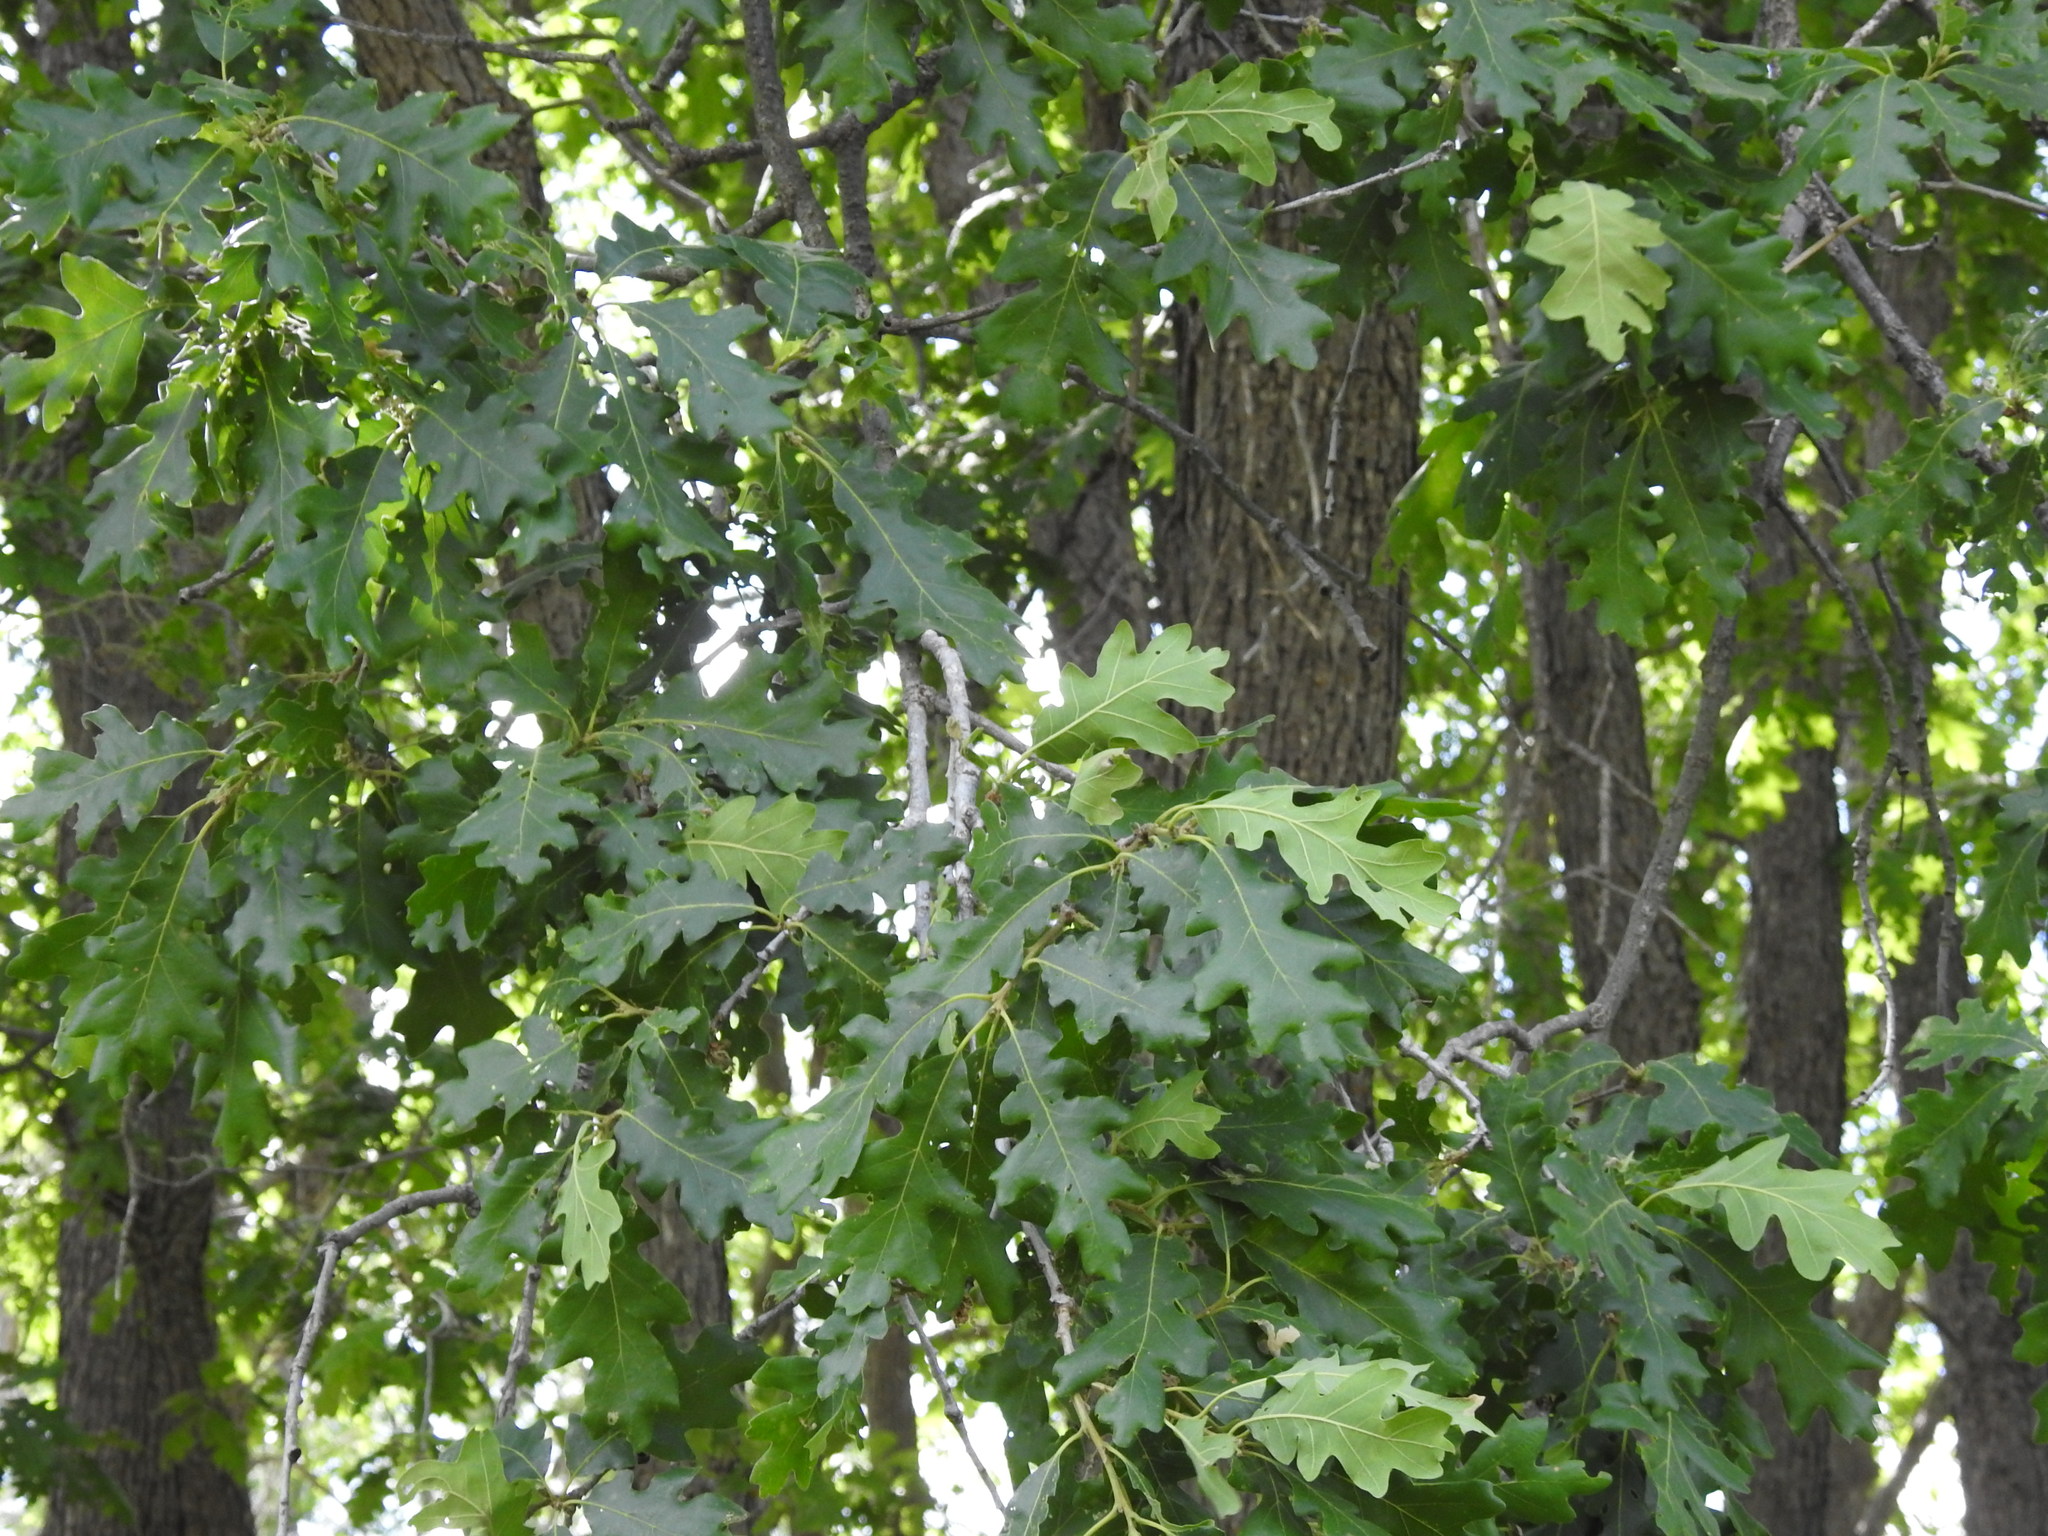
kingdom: Plantae
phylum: Tracheophyta
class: Magnoliopsida
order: Fagales
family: Fagaceae
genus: Quercus
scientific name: Quercus gambelii
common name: Gambel oak
